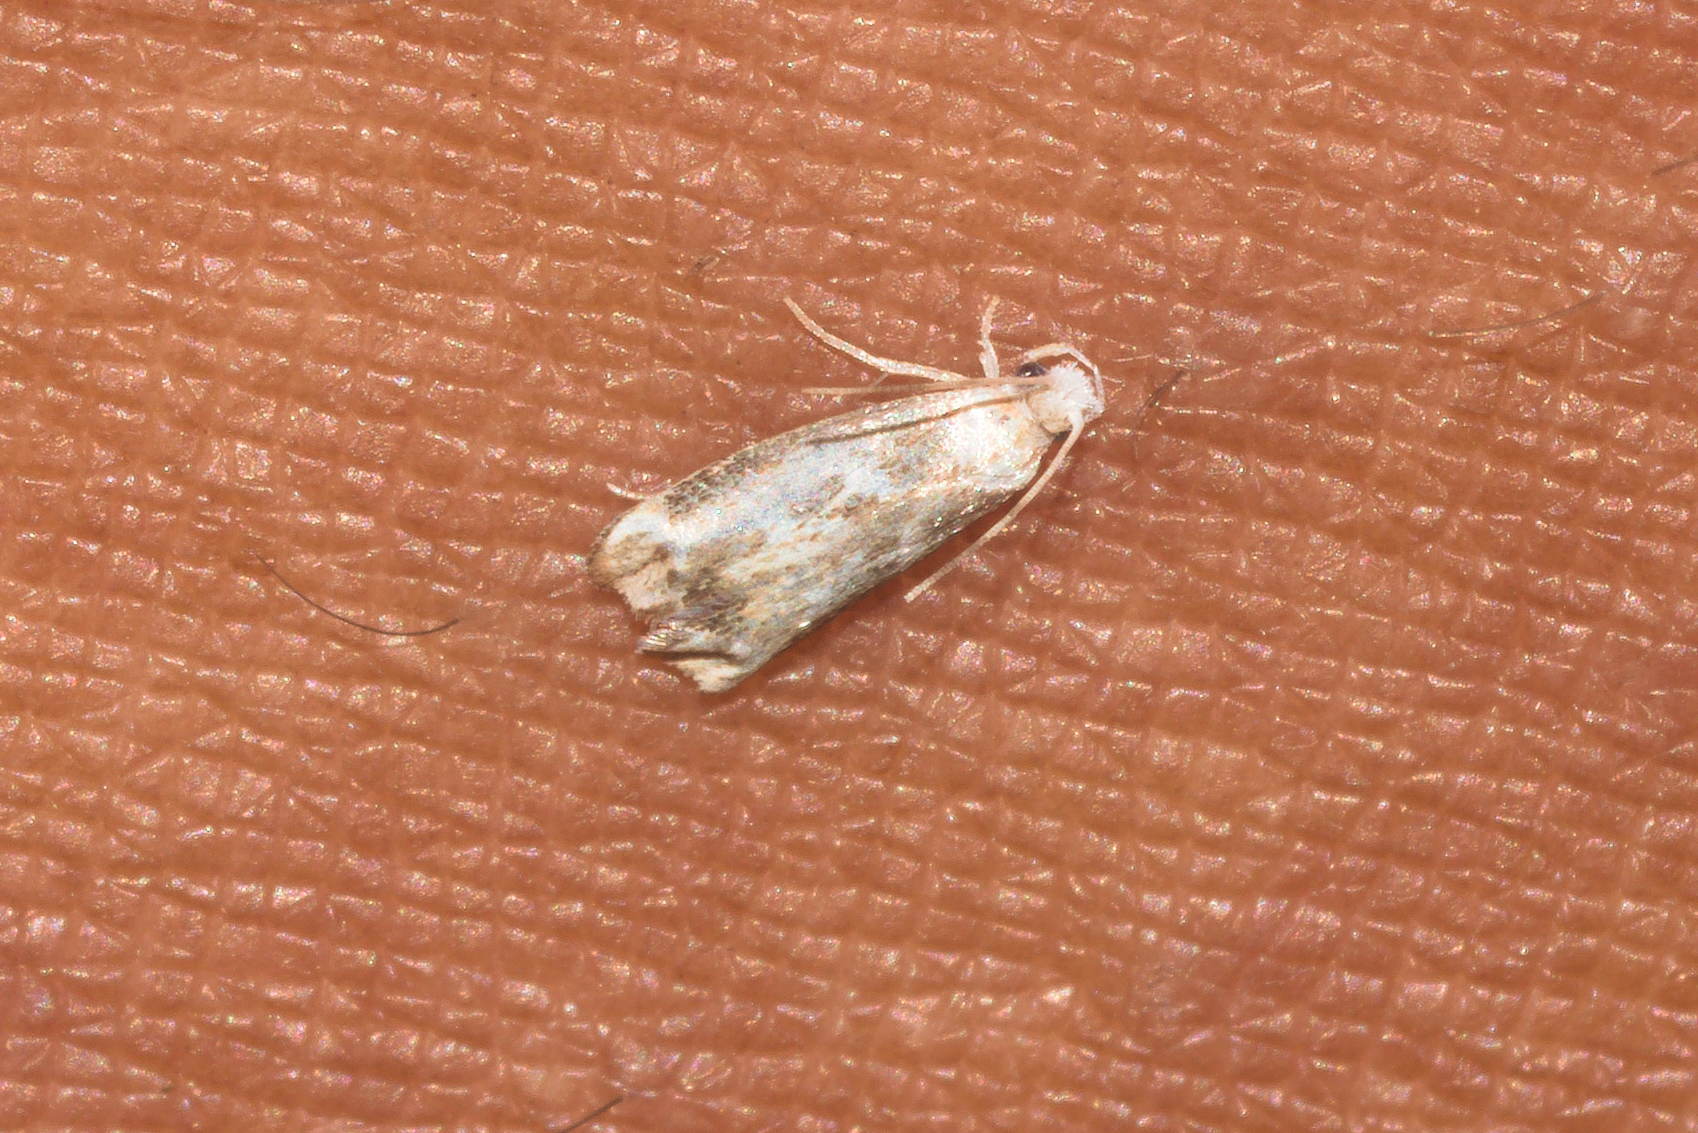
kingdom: Animalia
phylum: Arthropoda
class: Insecta
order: Lepidoptera
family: Dryadaulidae
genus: Dryadaula
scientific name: Dryadaula terpsichorella
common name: Dancing moth
